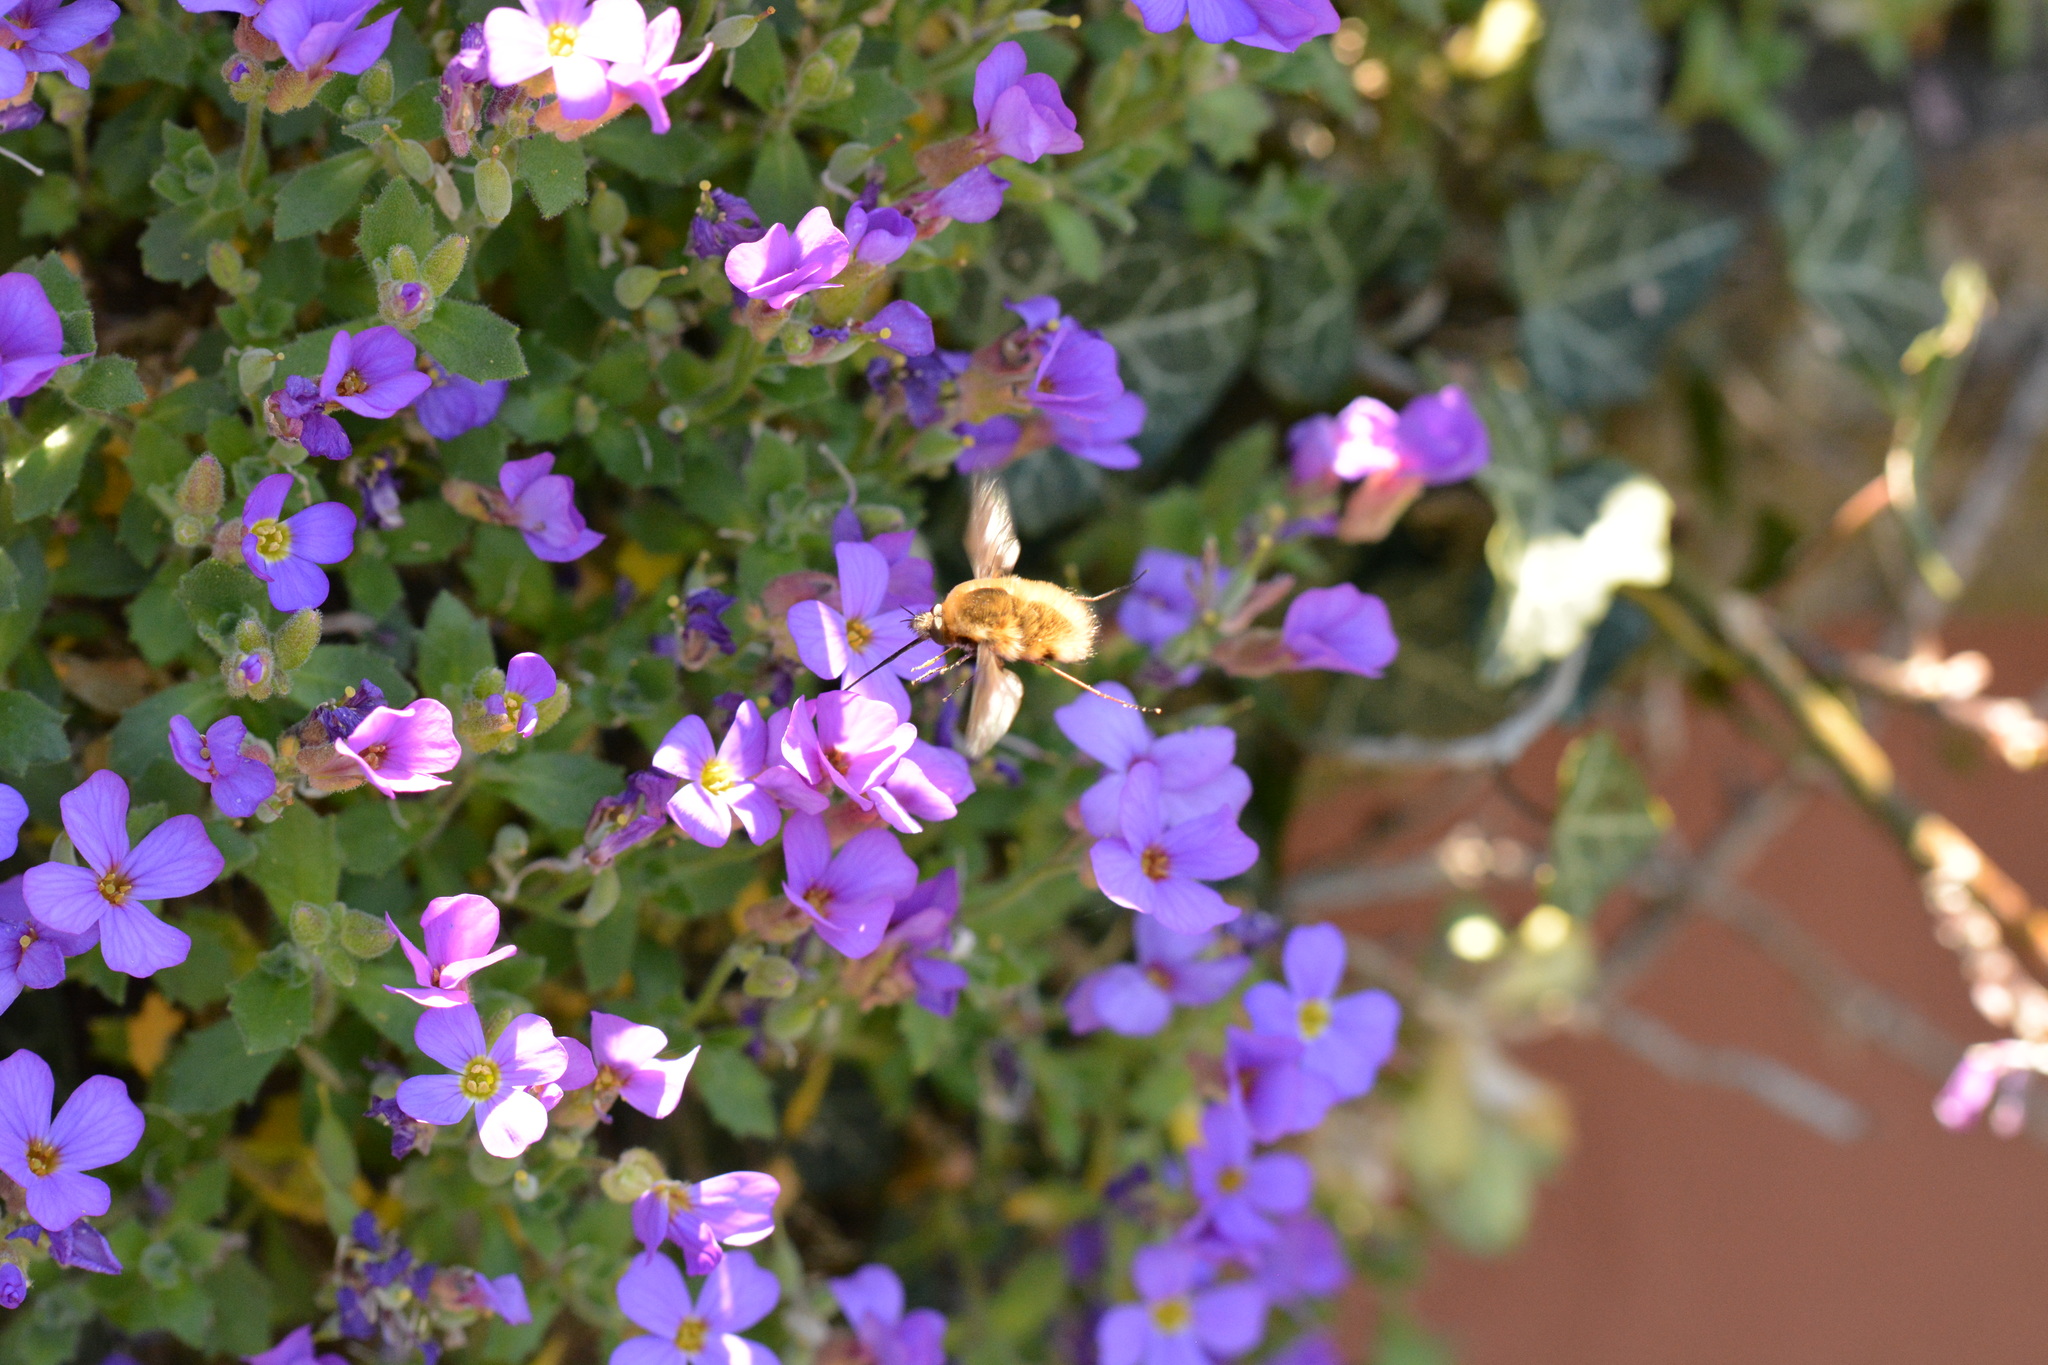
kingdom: Animalia
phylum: Arthropoda
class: Insecta
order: Diptera
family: Bombyliidae
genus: Bombylius
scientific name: Bombylius major
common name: Bee fly
